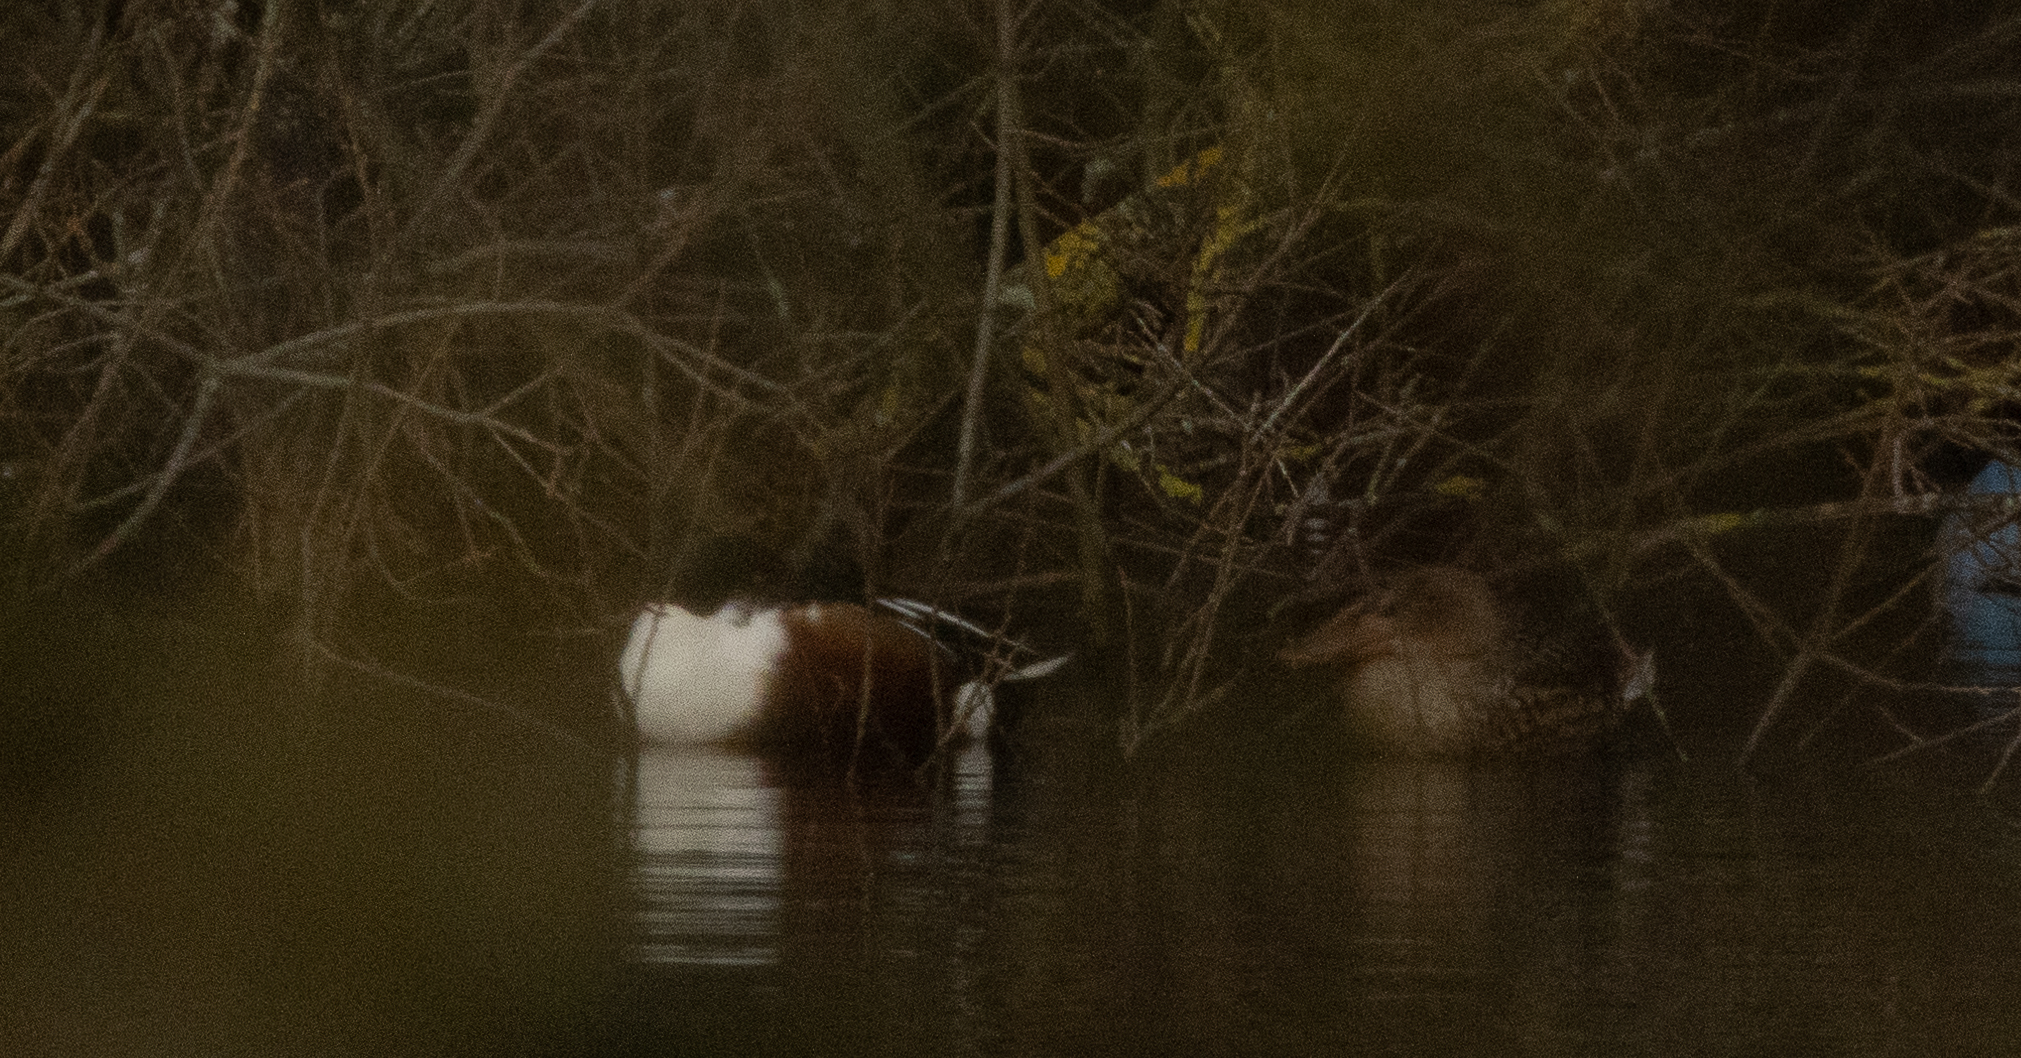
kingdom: Animalia
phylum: Chordata
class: Aves
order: Anseriformes
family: Anatidae
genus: Spatula
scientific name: Spatula clypeata
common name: Northern shoveler
